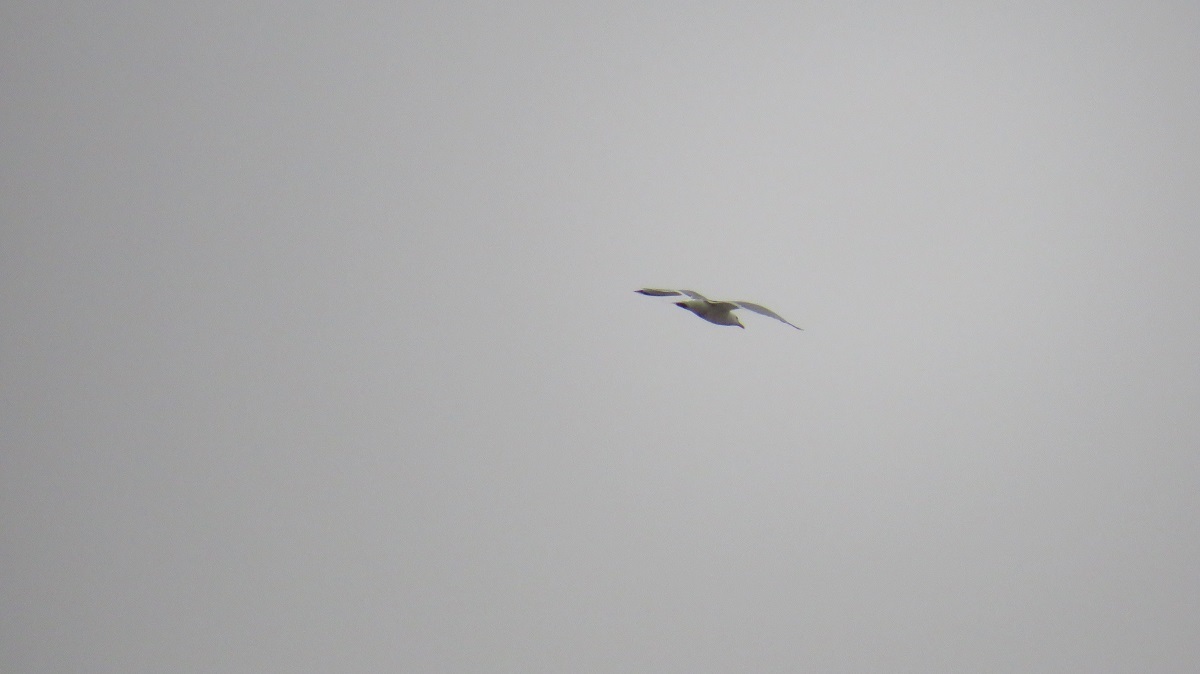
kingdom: Animalia
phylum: Chordata
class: Aves
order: Charadriiformes
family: Laridae
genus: Larus
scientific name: Larus argentatus
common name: Herring gull
